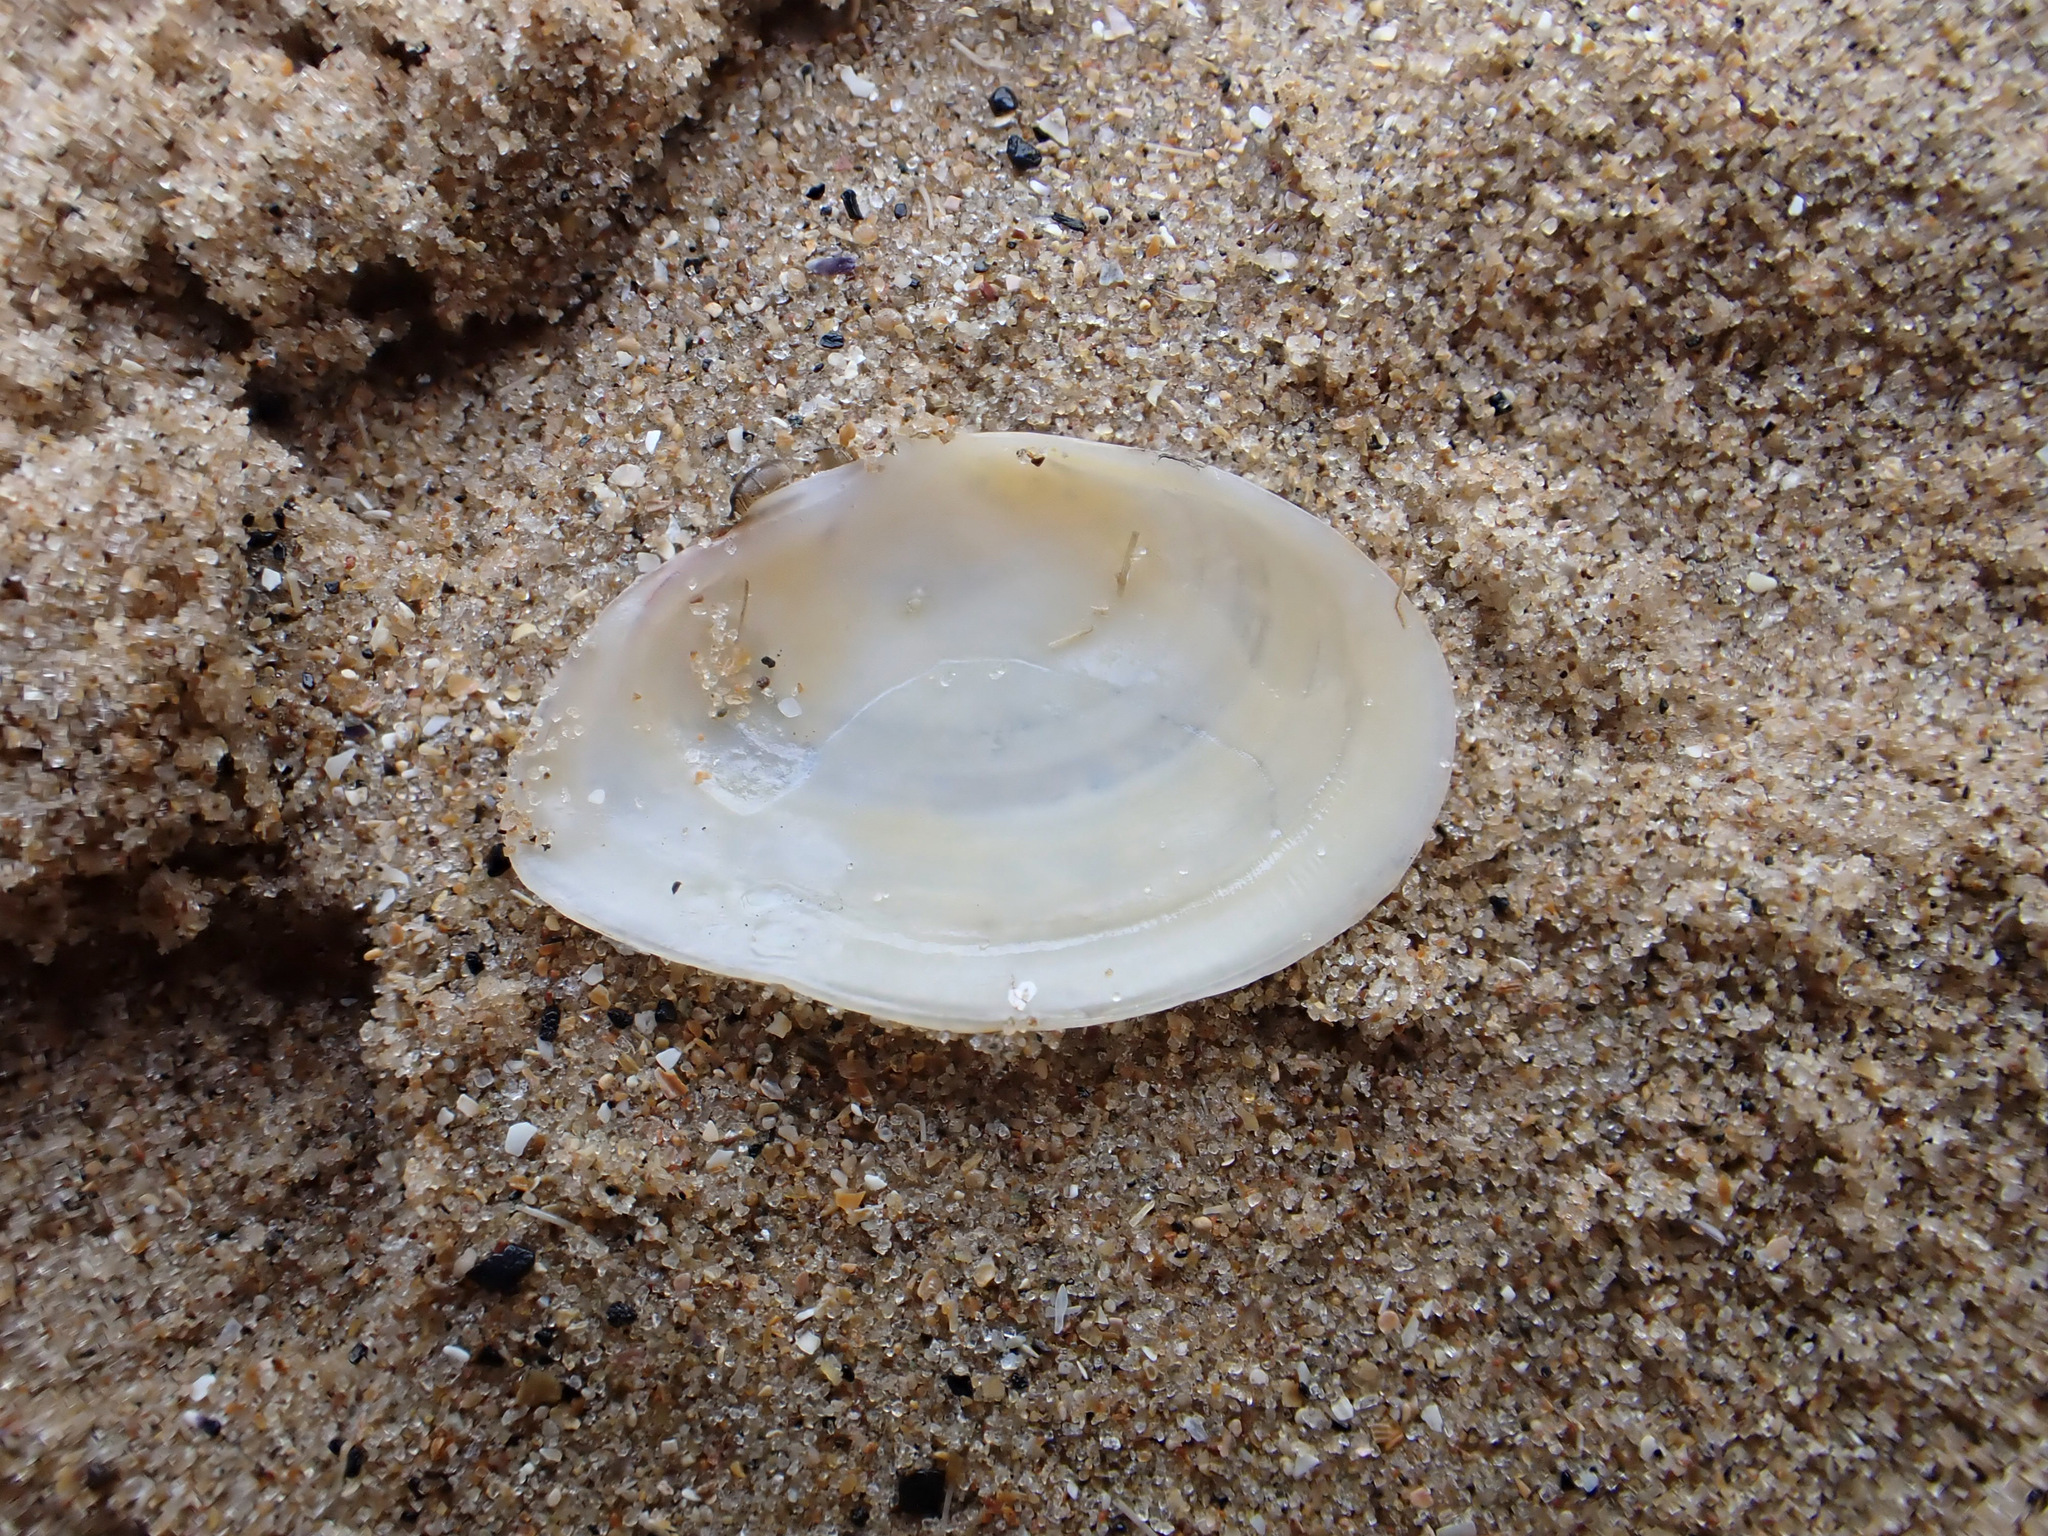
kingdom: Animalia
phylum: Mollusca
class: Bivalvia
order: Cardiida
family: Tellinidae
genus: Macomangulus
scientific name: Macomangulus tenuis
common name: Thin tellin
